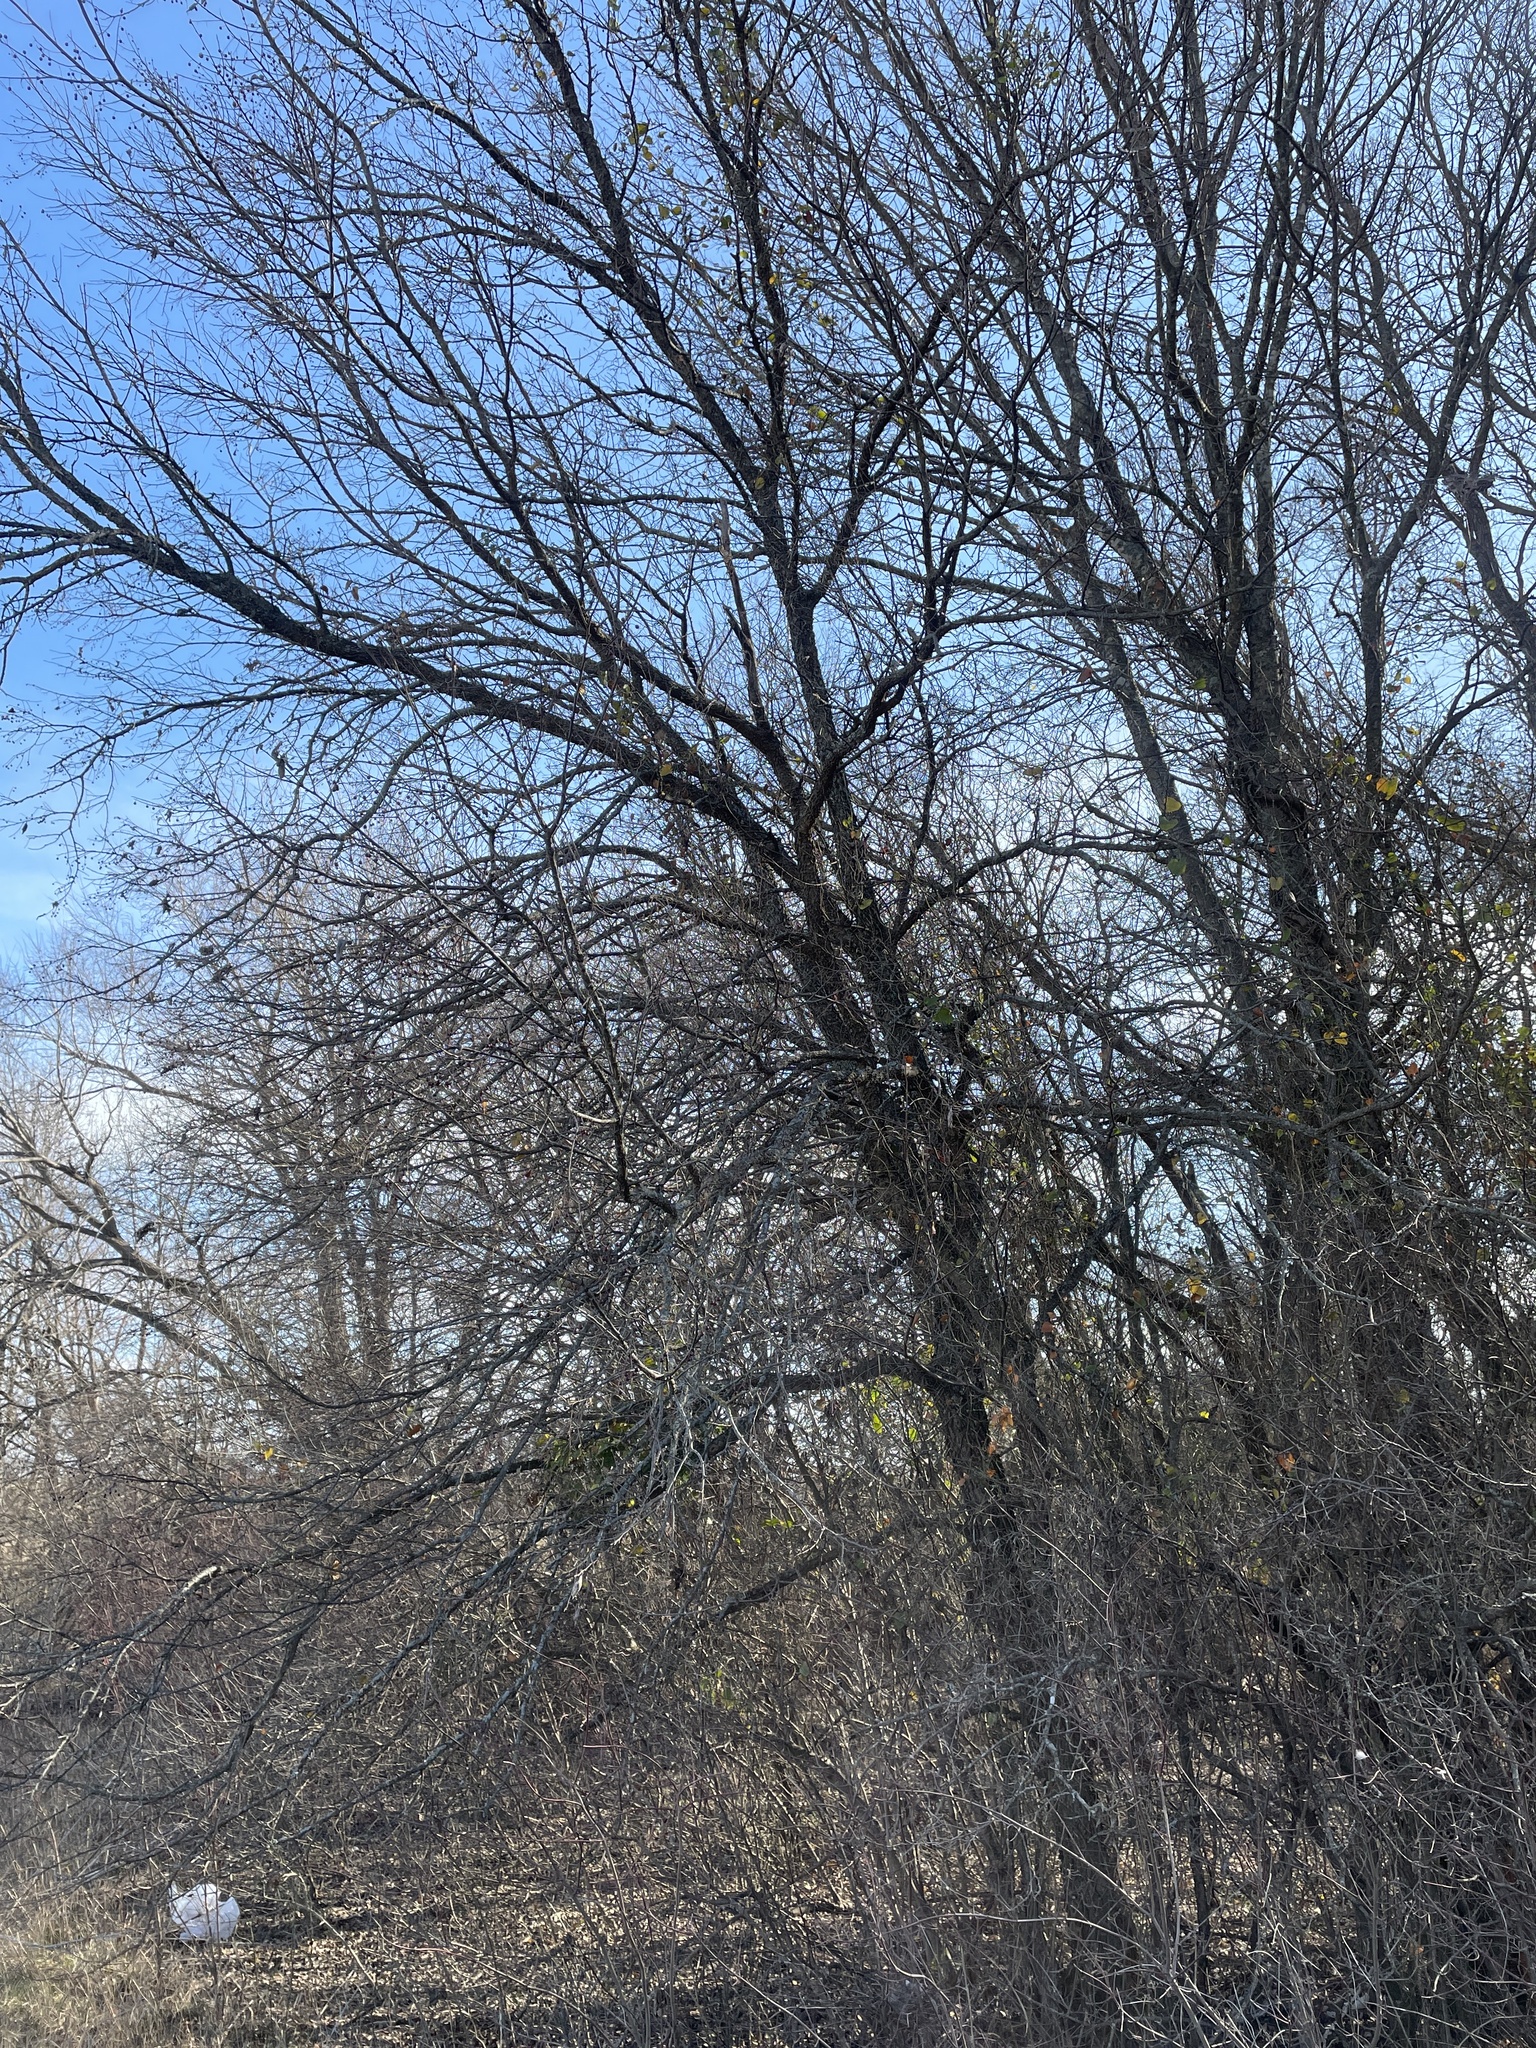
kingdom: Plantae
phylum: Tracheophyta
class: Magnoliopsida
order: Rosales
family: Cannabaceae
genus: Celtis
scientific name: Celtis laevigata
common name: Sugarberry
